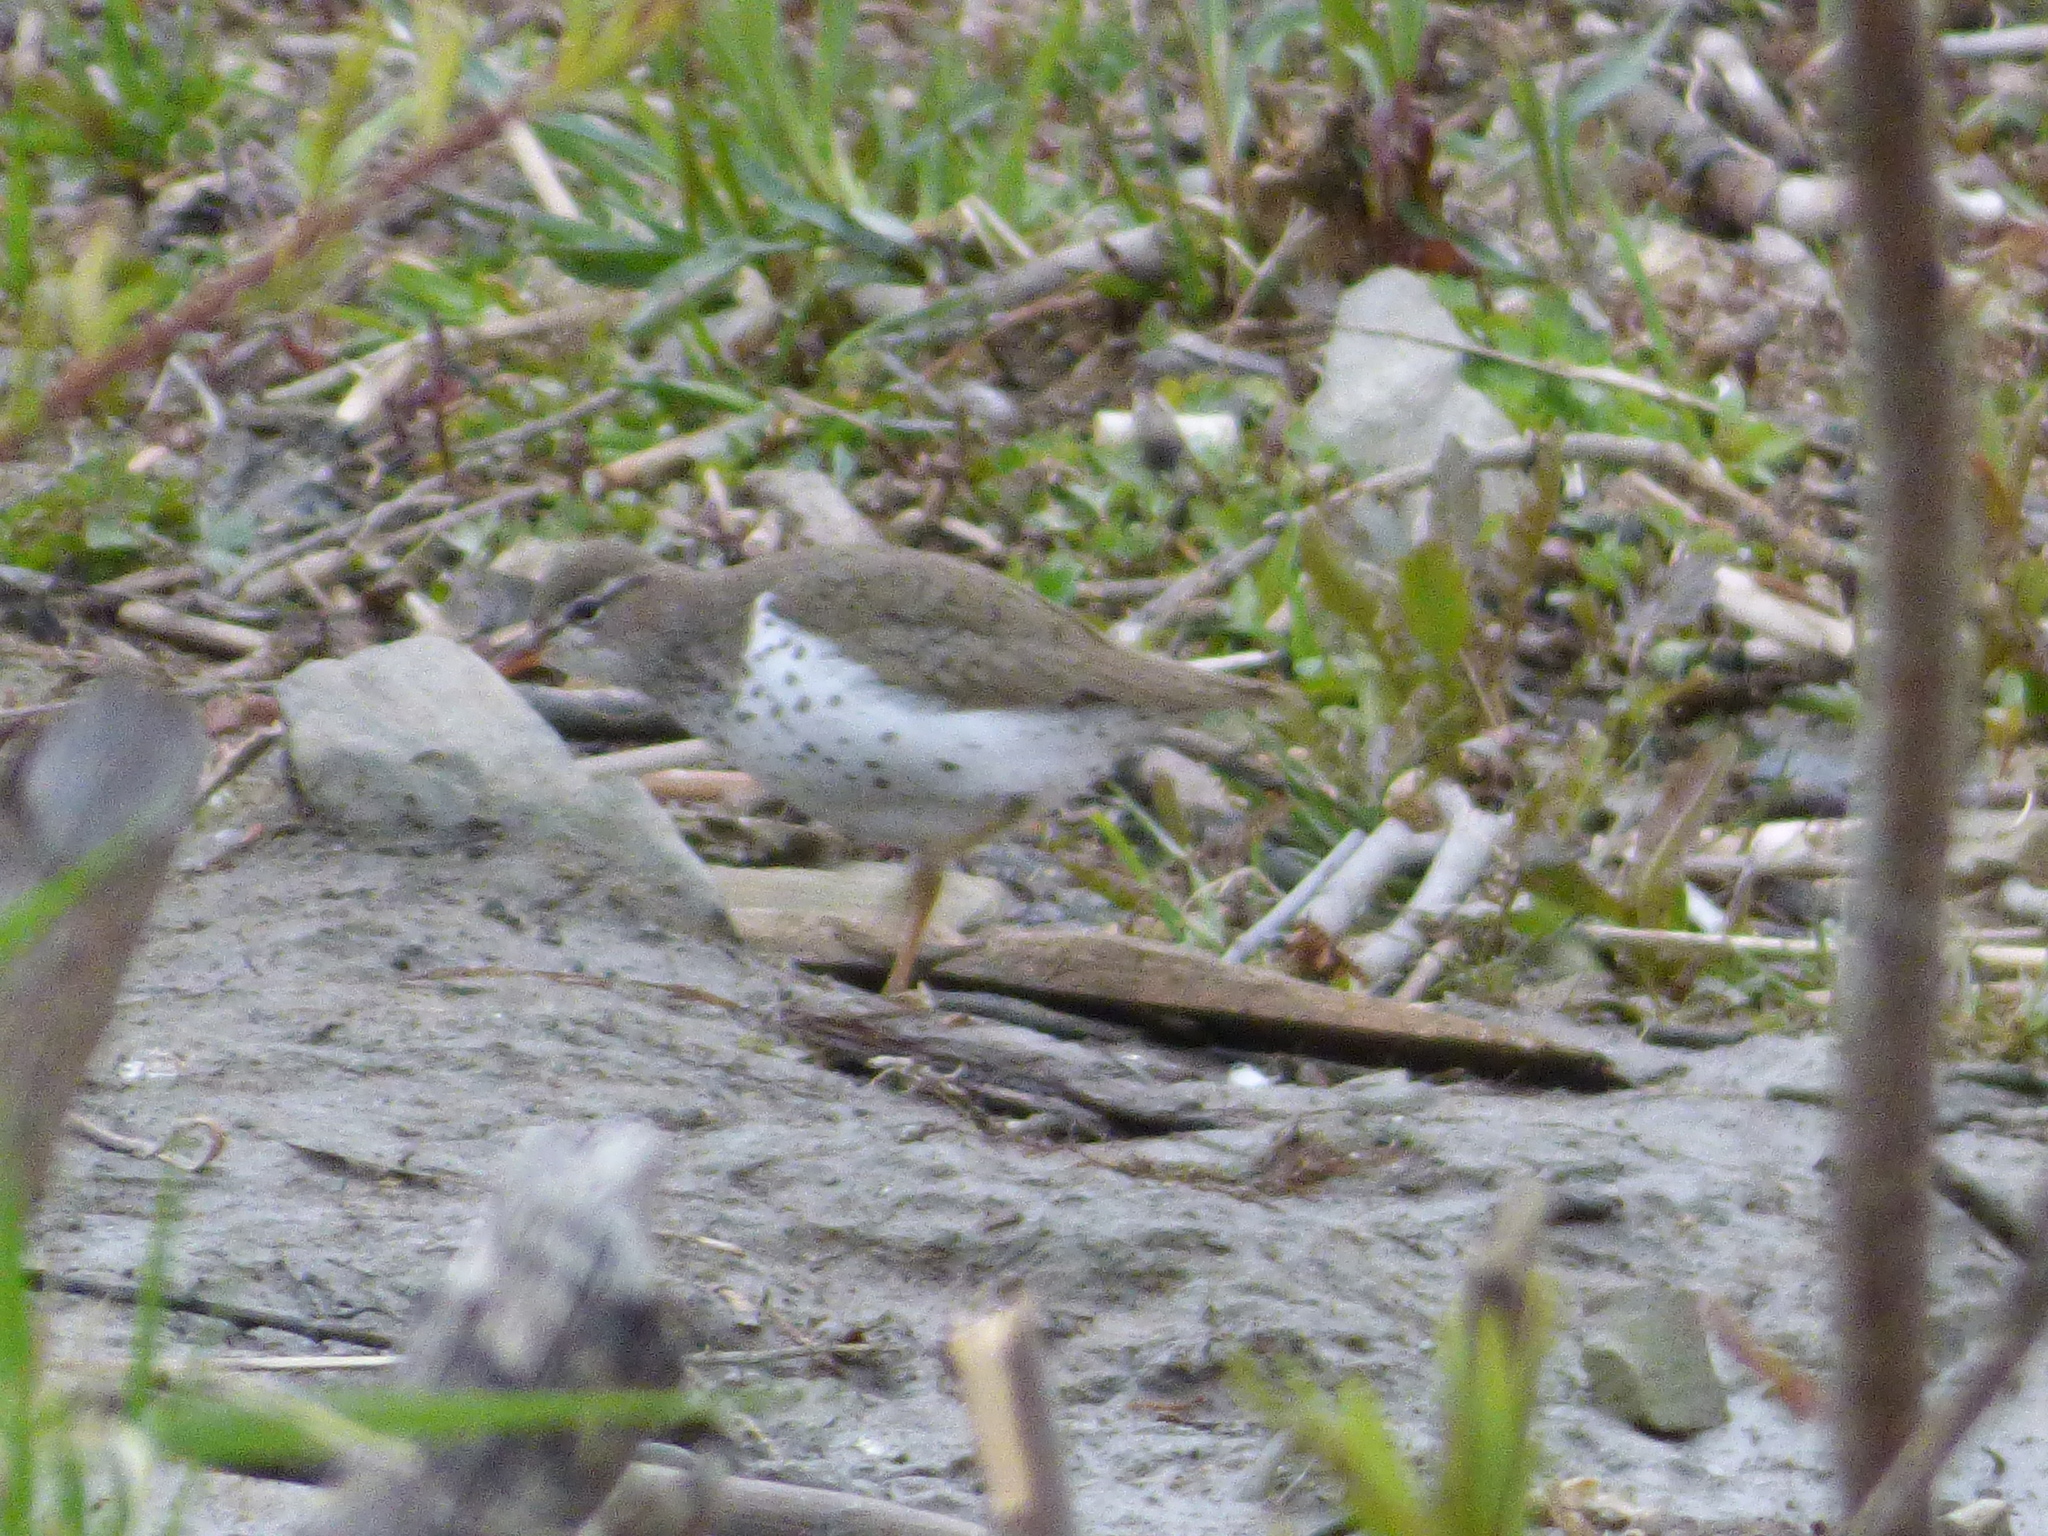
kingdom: Animalia
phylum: Chordata
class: Aves
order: Charadriiformes
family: Scolopacidae
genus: Actitis
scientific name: Actitis macularius
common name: Spotted sandpiper
